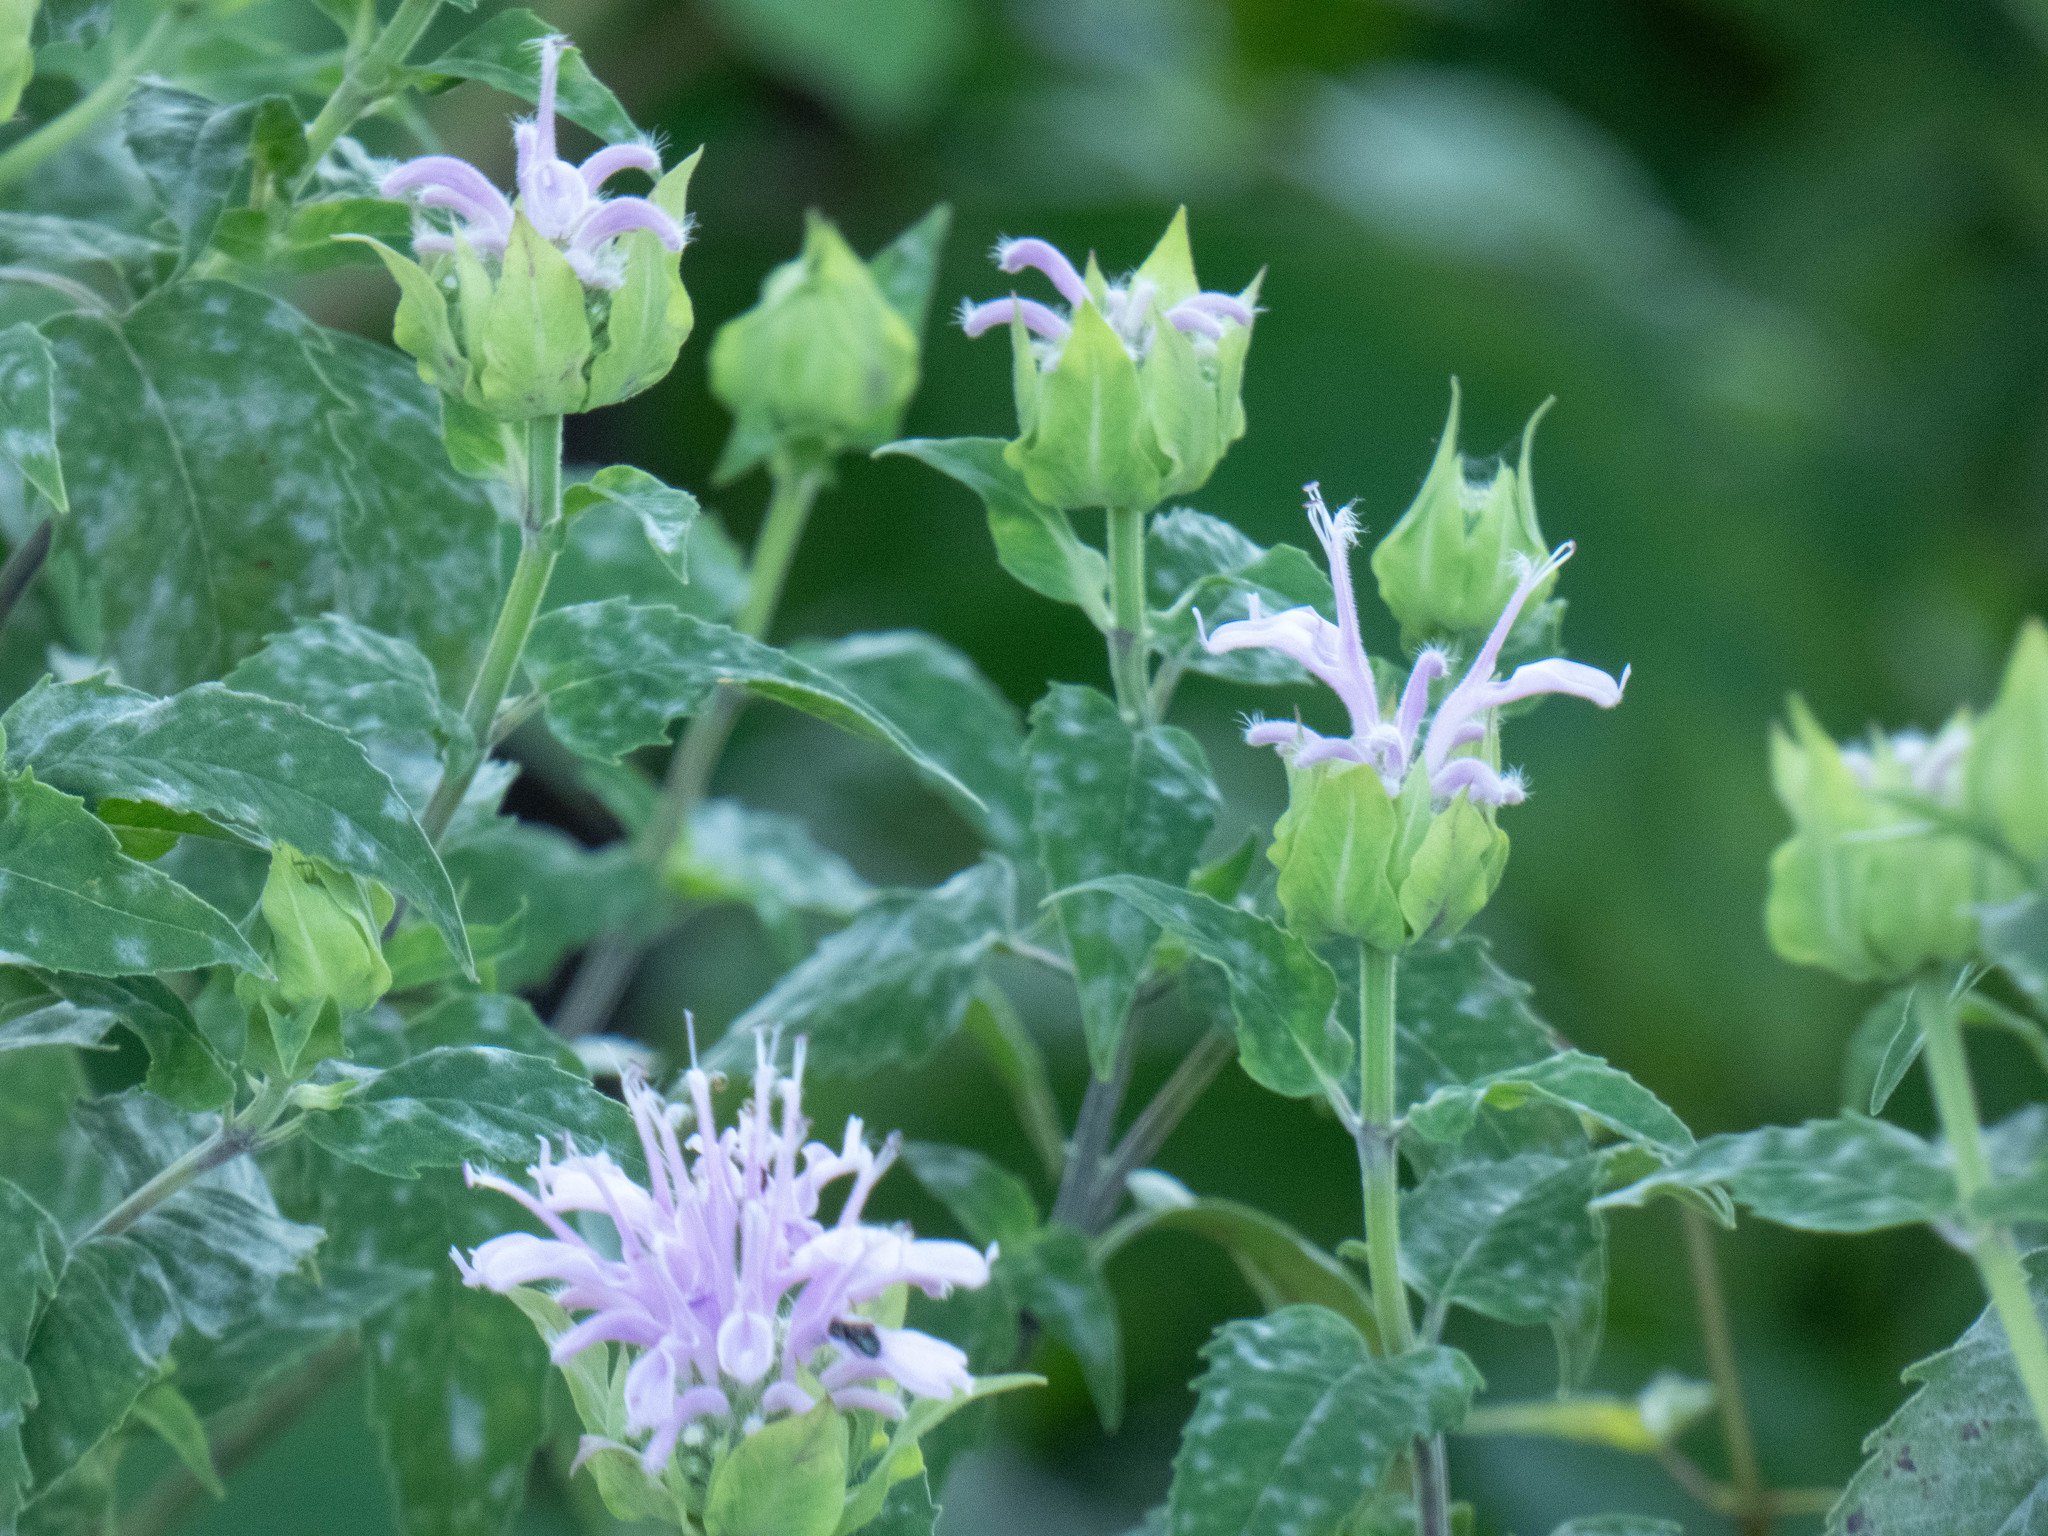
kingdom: Plantae
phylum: Tracheophyta
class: Magnoliopsida
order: Lamiales
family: Lamiaceae
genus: Monarda
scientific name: Monarda fistulosa
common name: Purple beebalm
